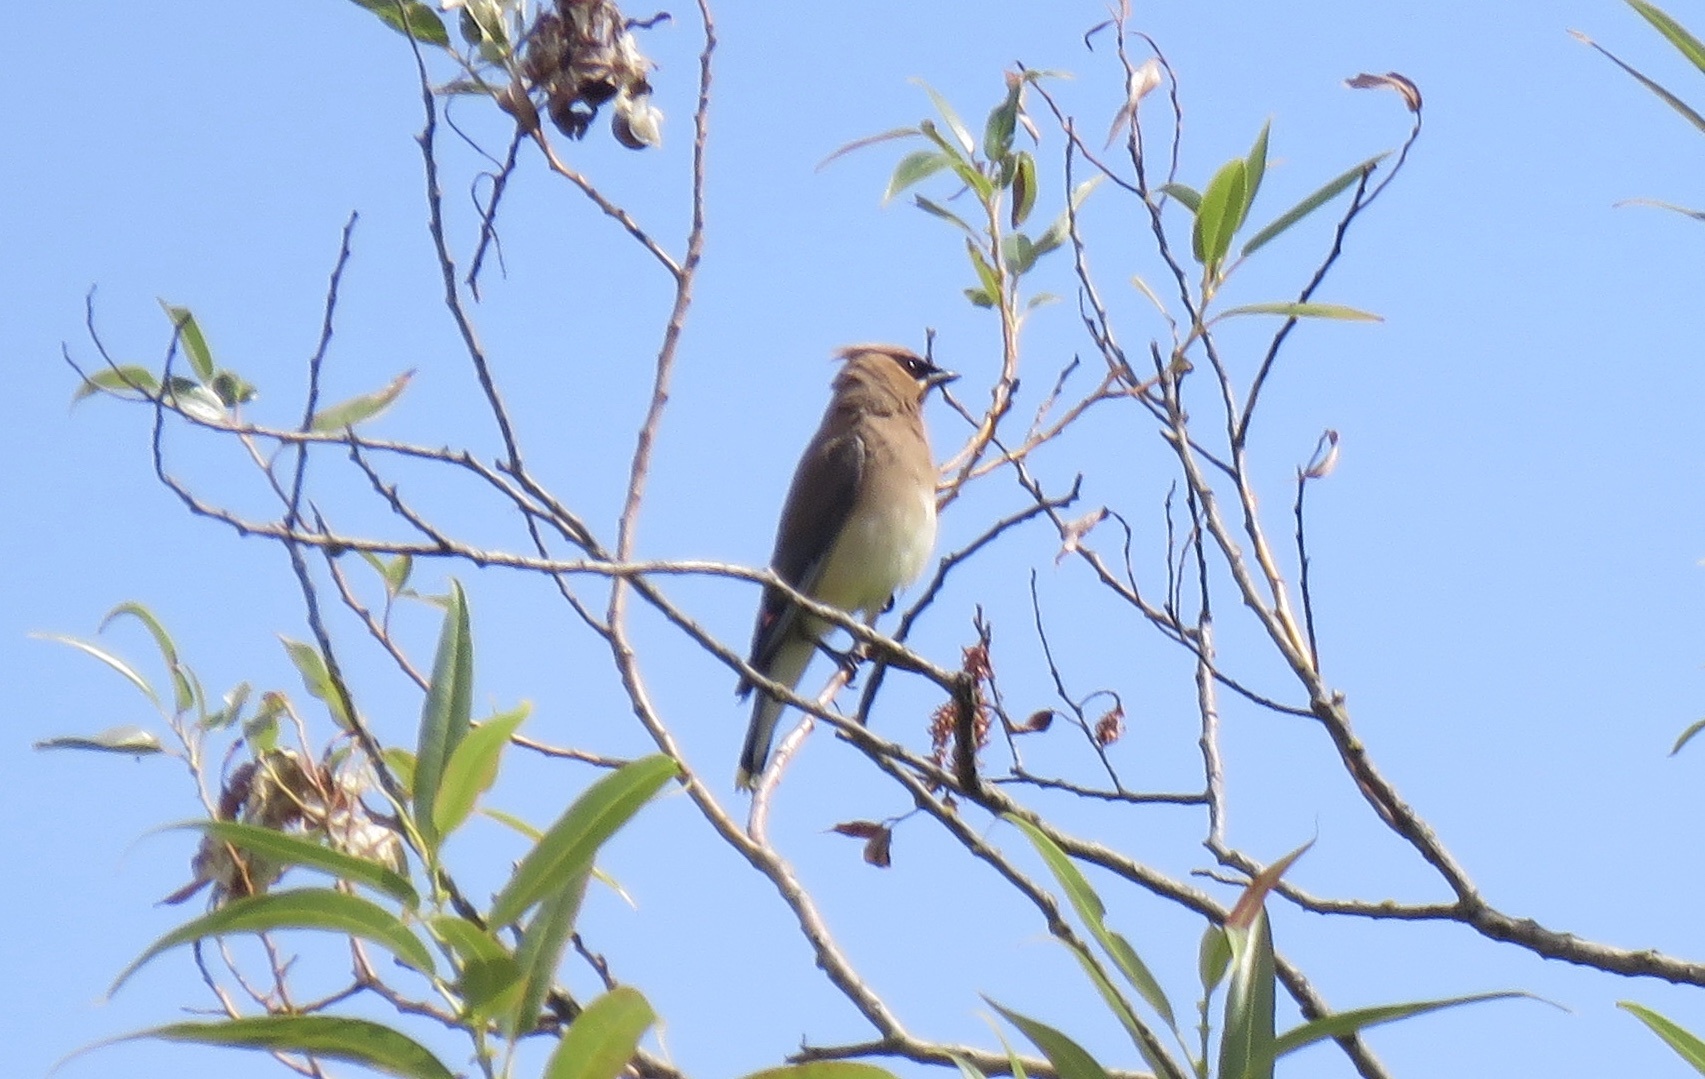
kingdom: Animalia
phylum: Chordata
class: Aves
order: Passeriformes
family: Bombycillidae
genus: Bombycilla
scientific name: Bombycilla cedrorum
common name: Cedar waxwing
